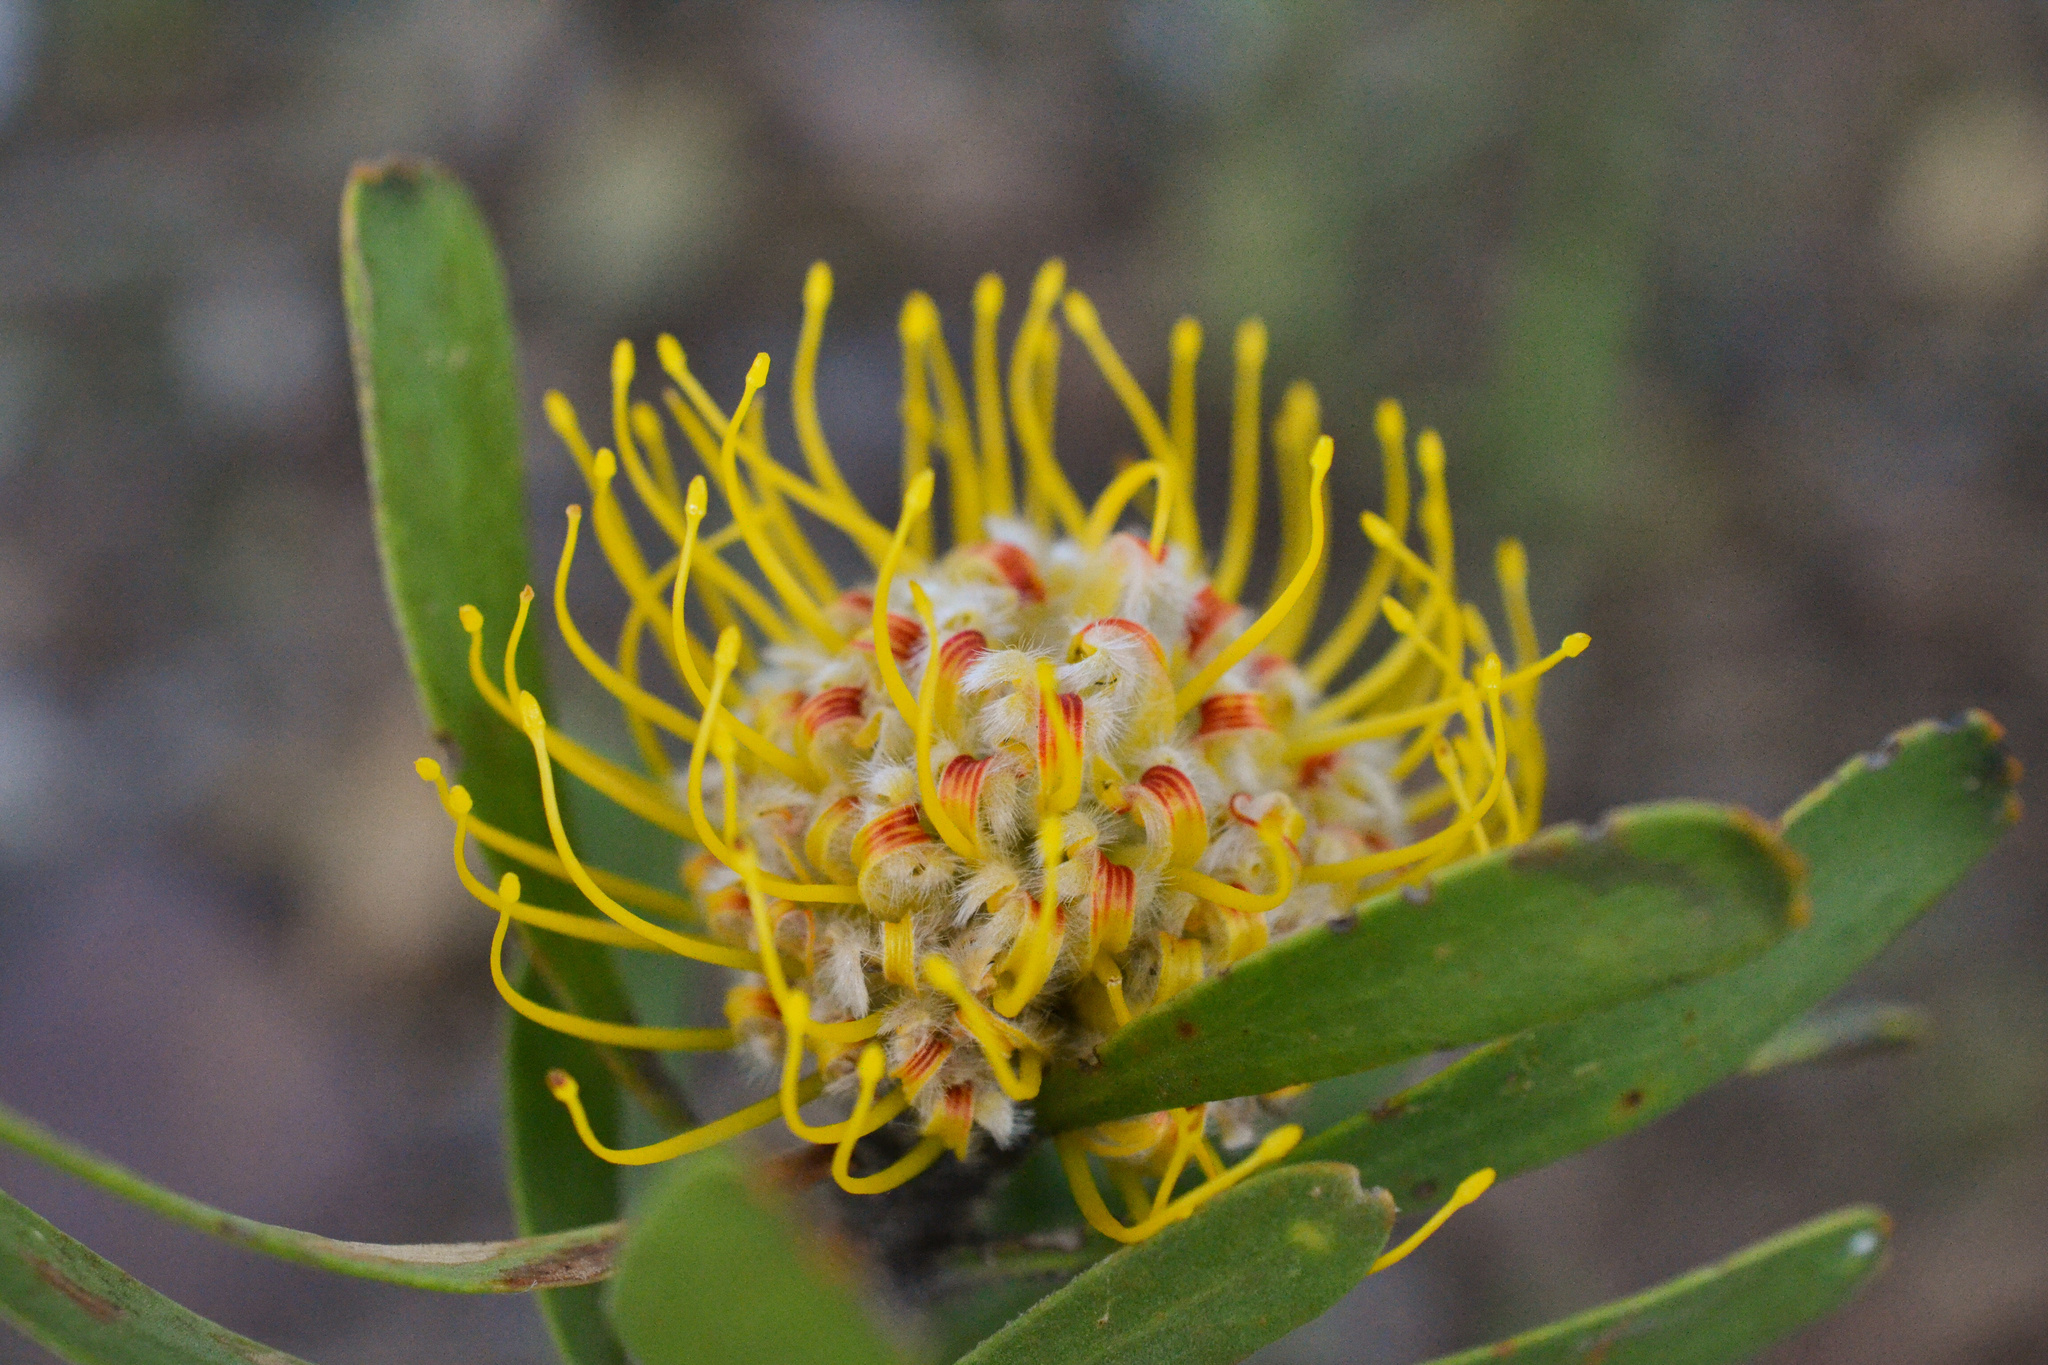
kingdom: Plantae
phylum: Tracheophyta
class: Magnoliopsida
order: Proteales
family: Proteaceae
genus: Leucospermum
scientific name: Leucospermum truncatum
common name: Limestone pincushion
